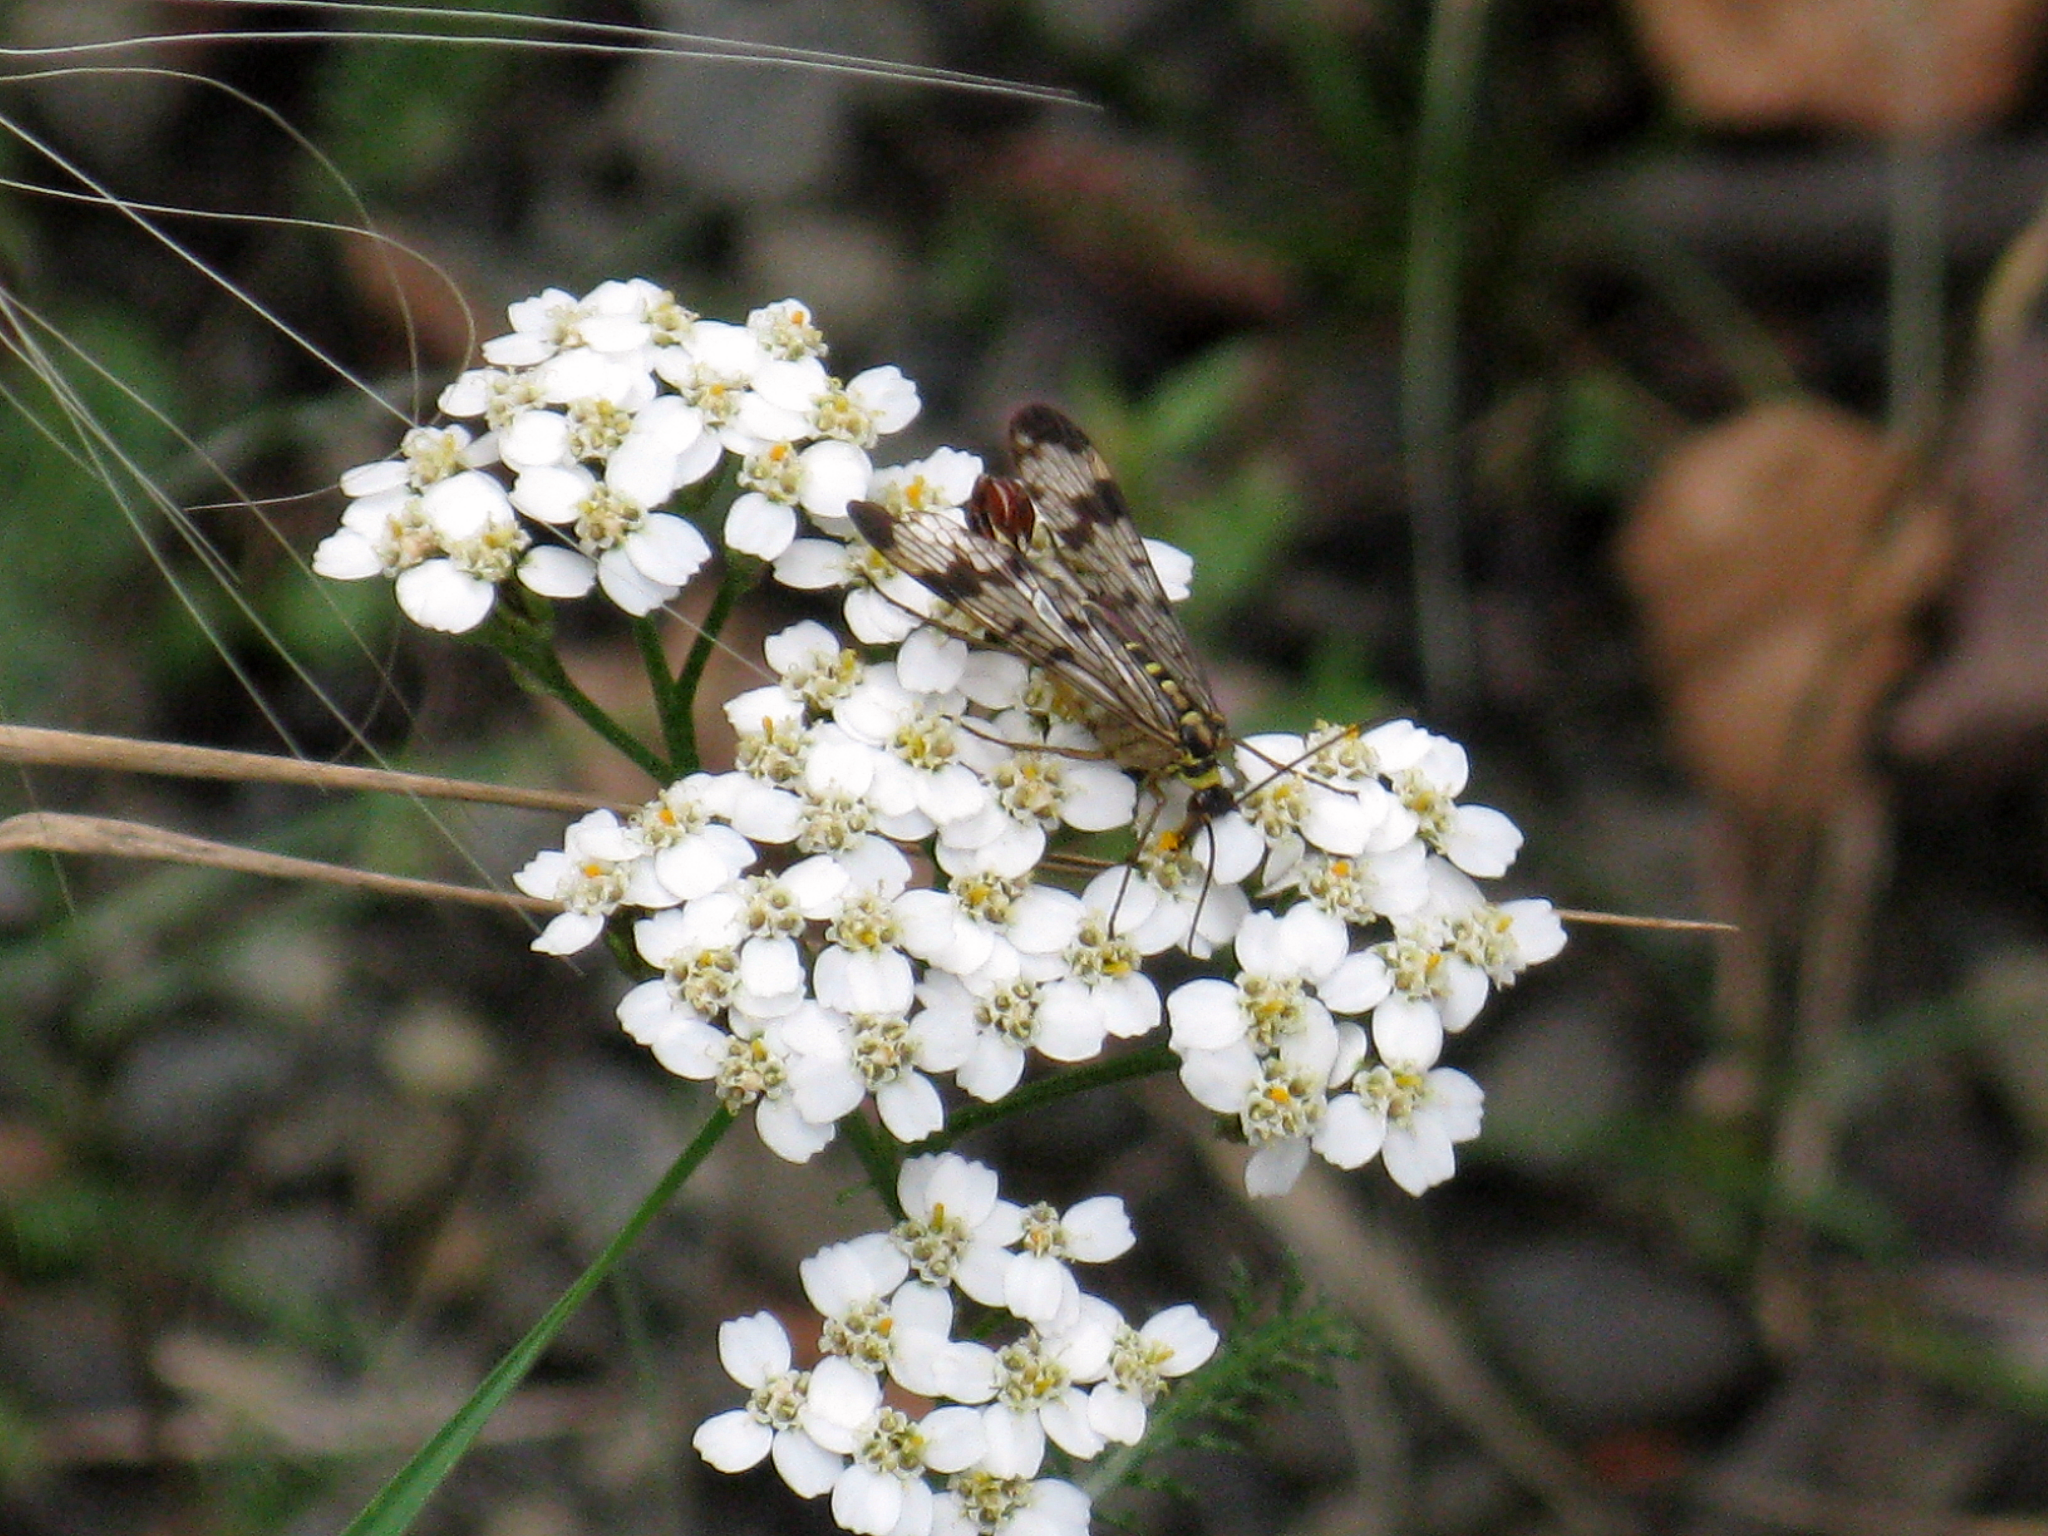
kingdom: Plantae
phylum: Tracheophyta
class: Magnoliopsida
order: Asterales
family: Asteraceae
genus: Achillea
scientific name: Achillea millefolium
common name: Yarrow
